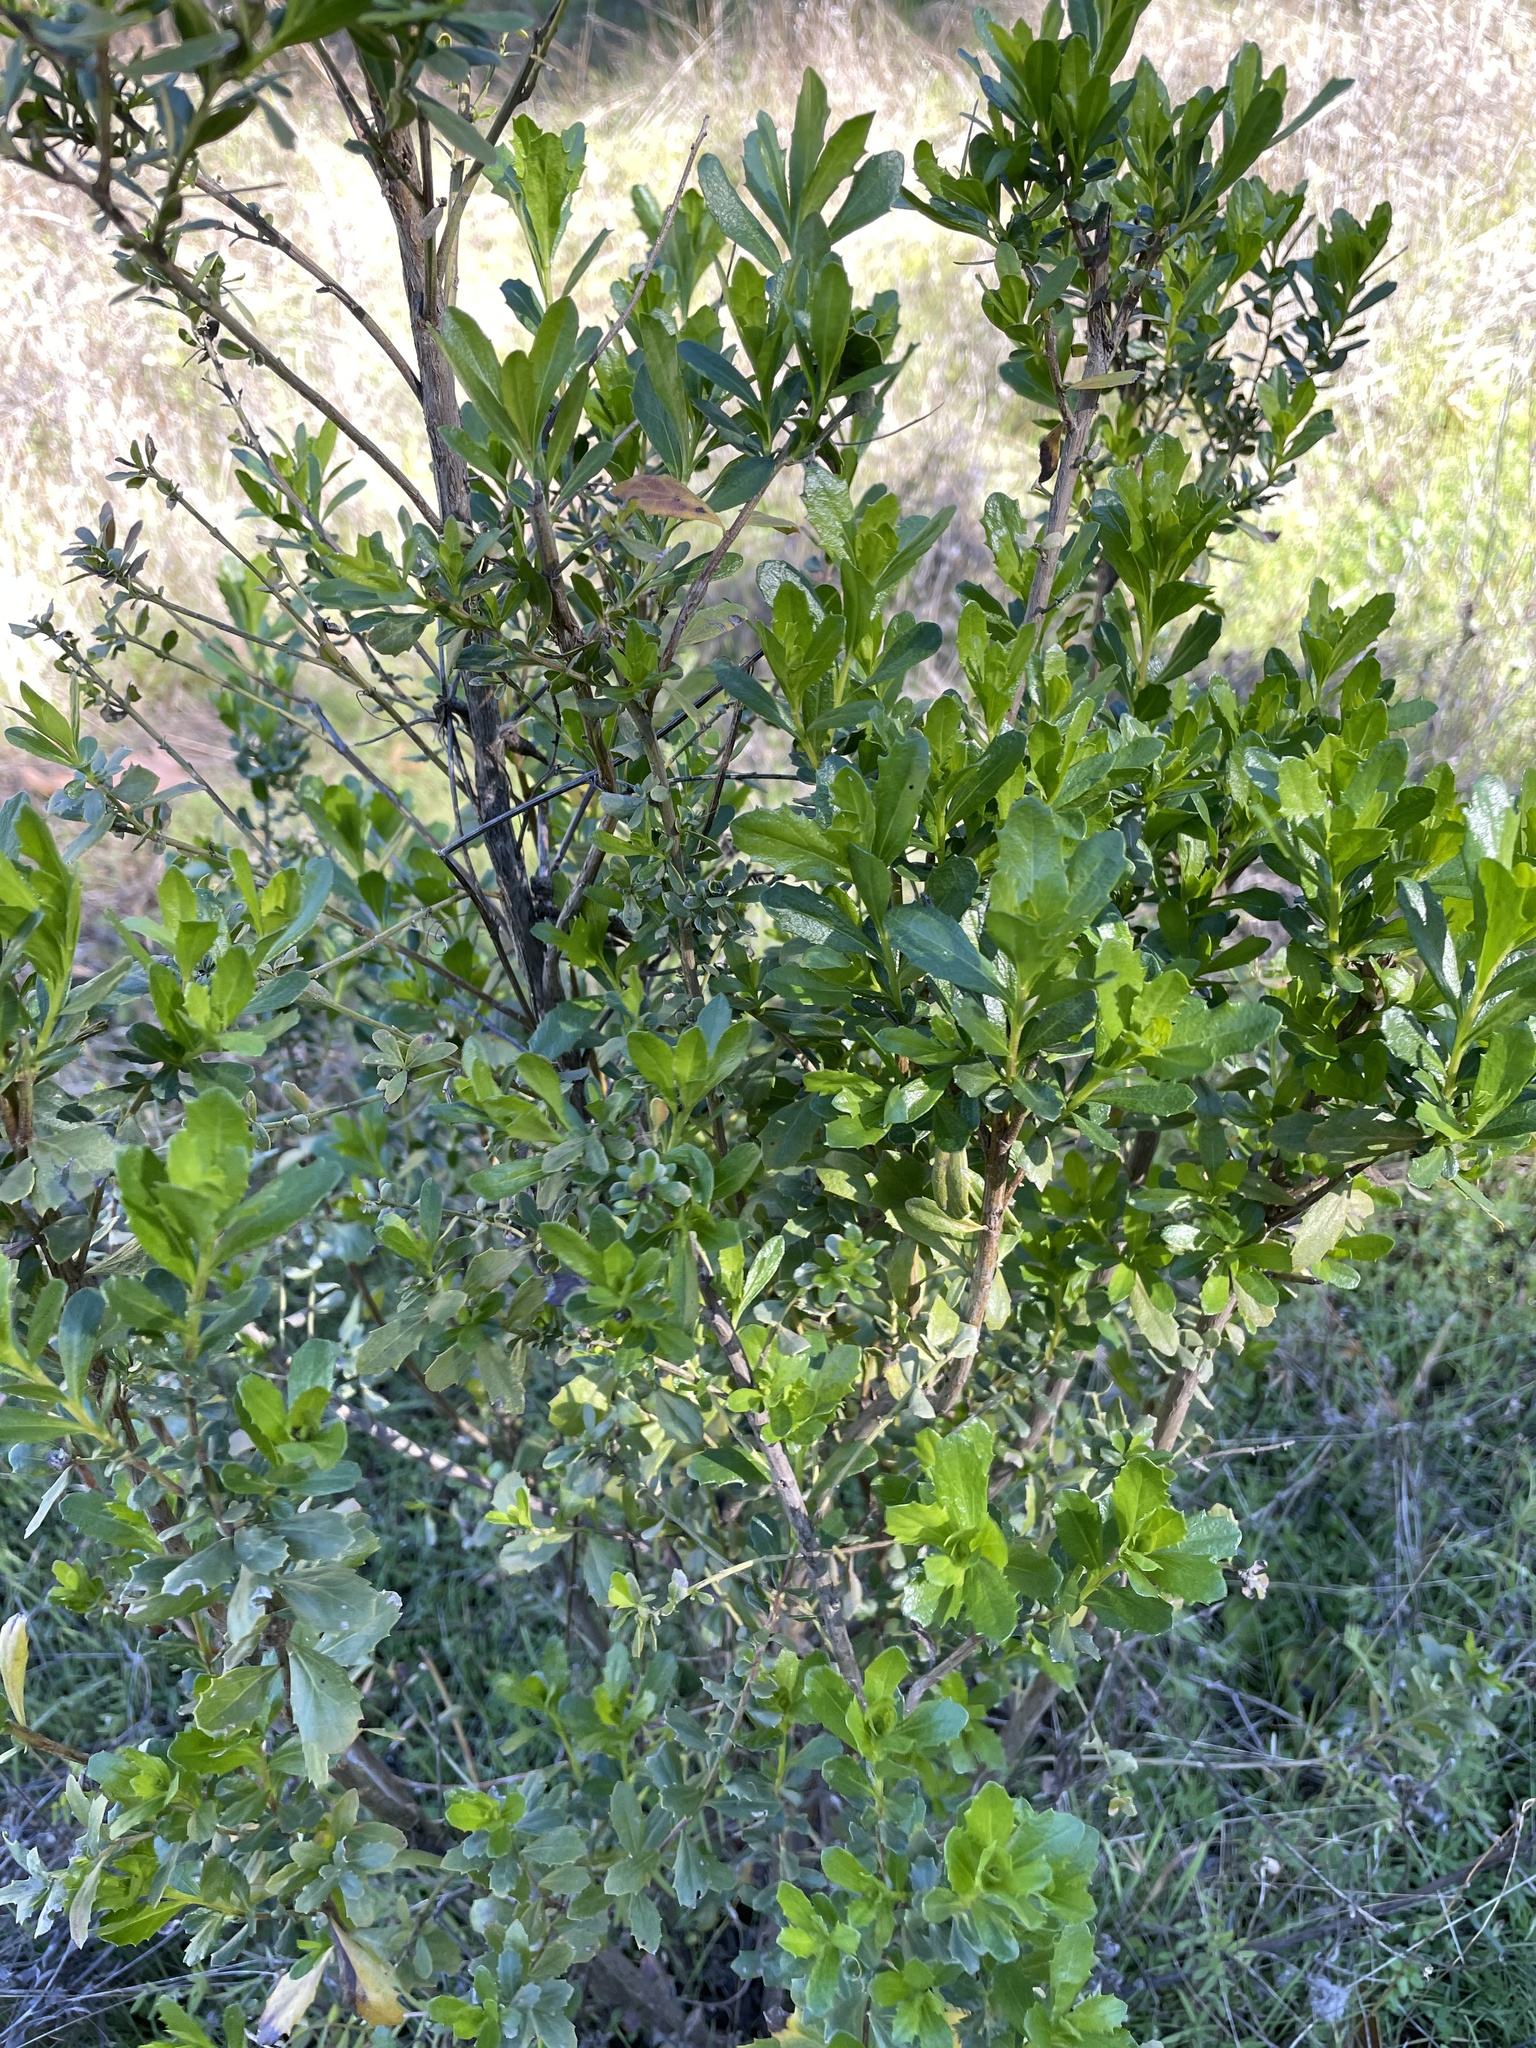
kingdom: Plantae
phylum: Tracheophyta
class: Magnoliopsida
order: Asterales
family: Asteraceae
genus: Baccharis
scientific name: Baccharis pilularis
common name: Coyotebrush
